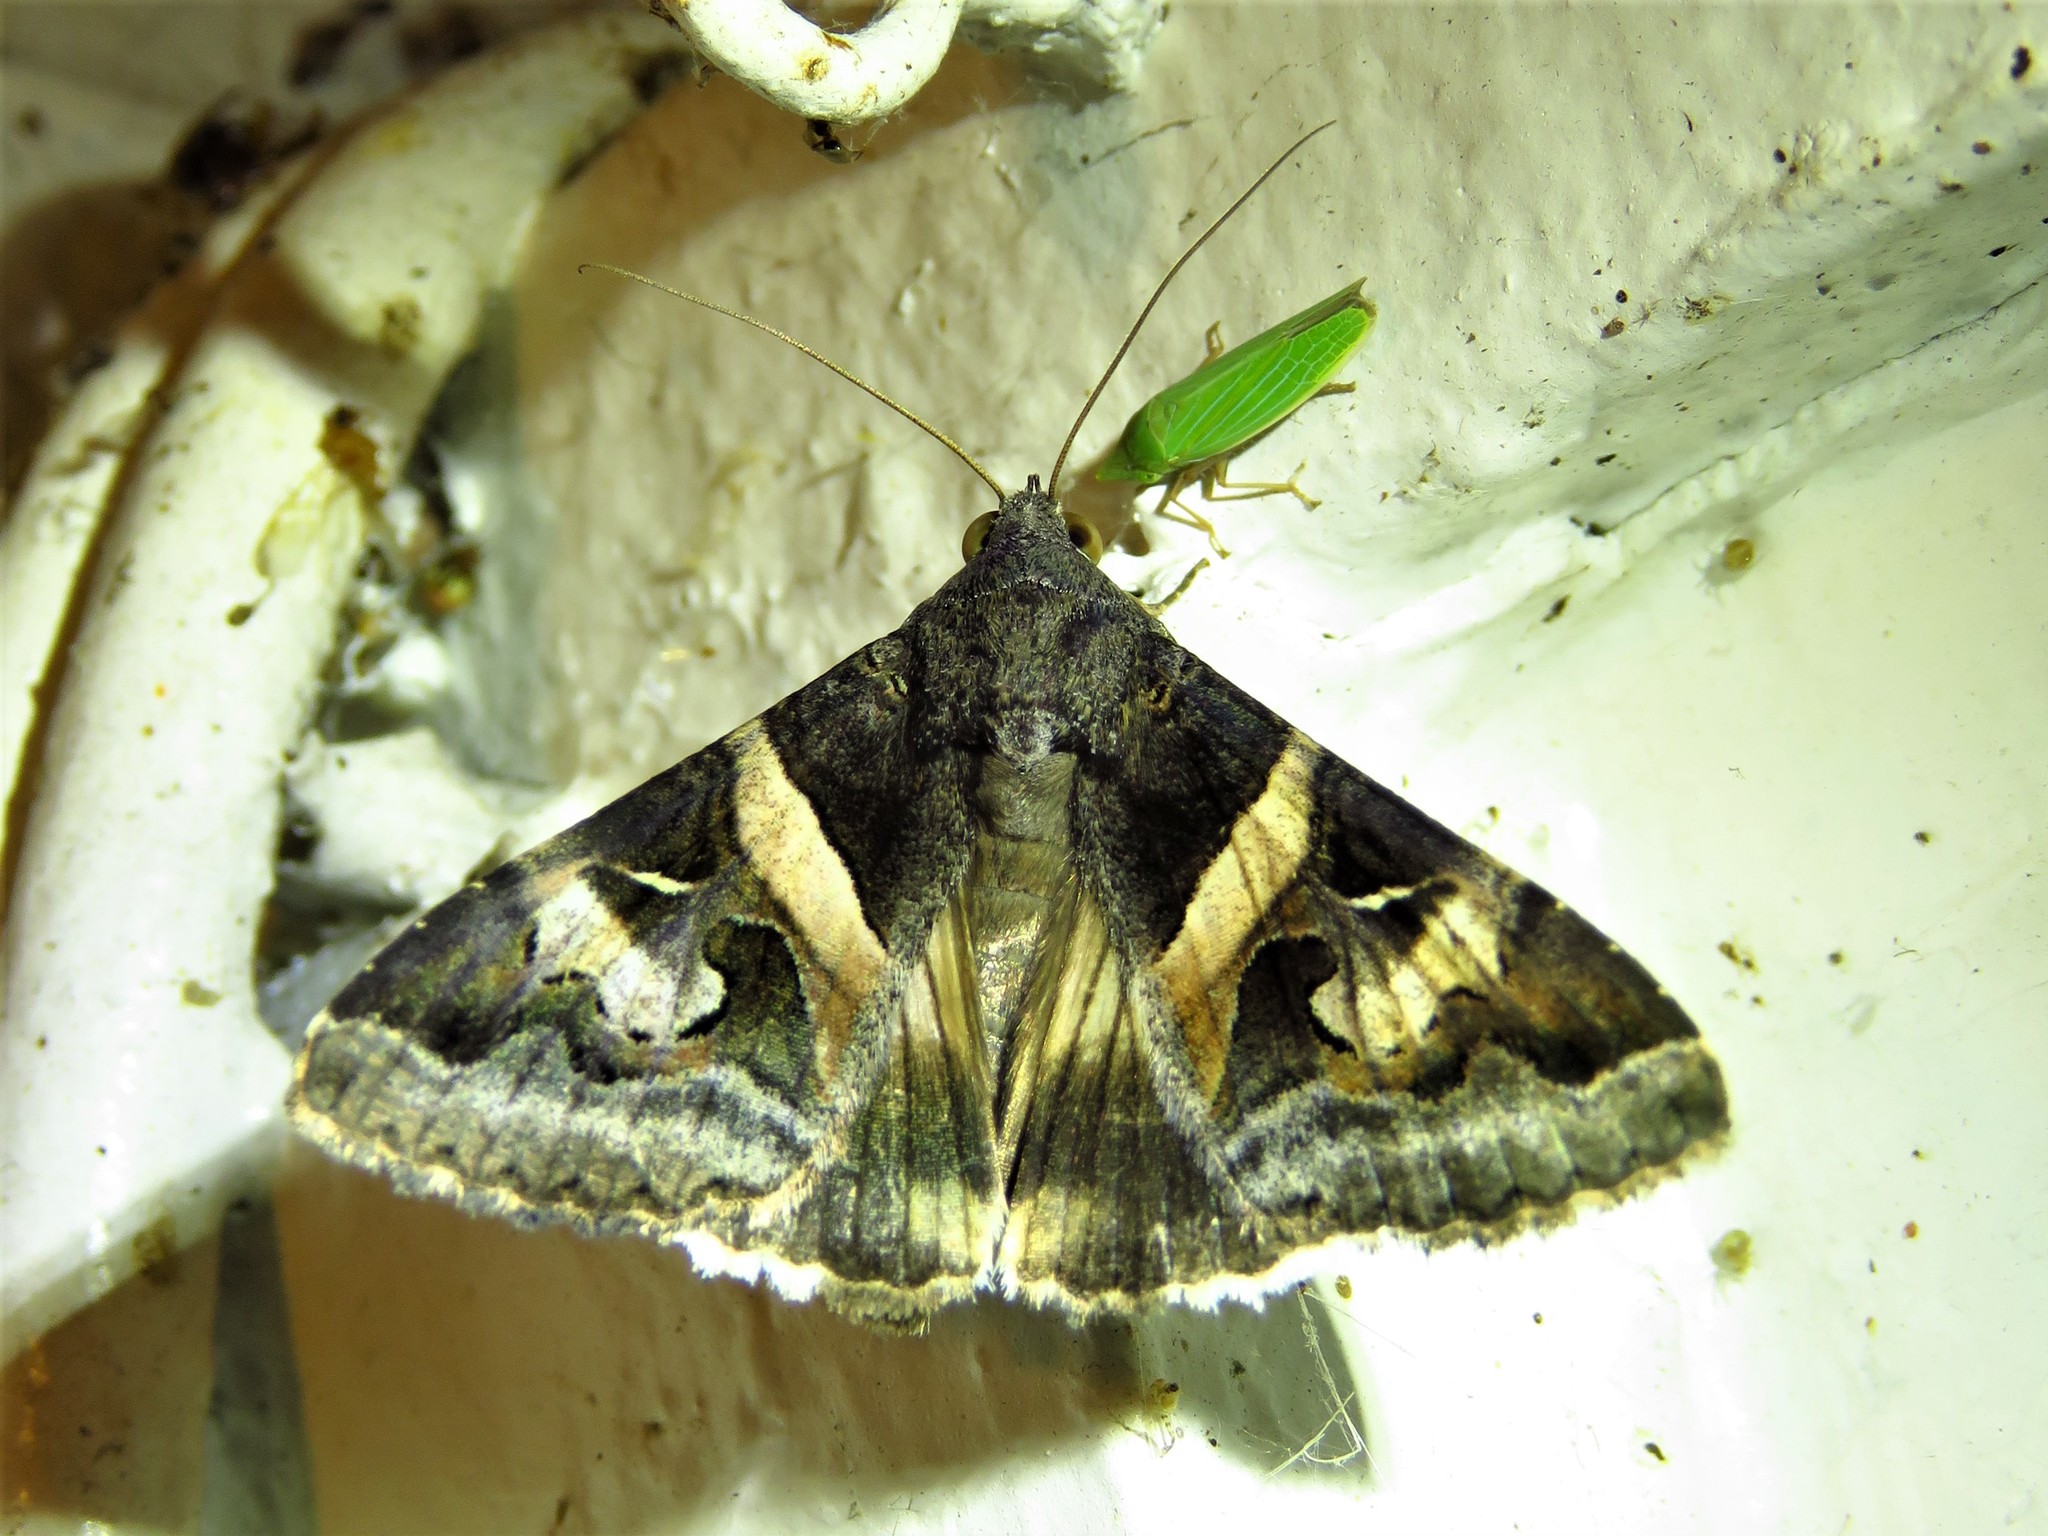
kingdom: Animalia
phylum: Arthropoda
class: Insecta
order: Lepidoptera
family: Erebidae
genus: Melipotis
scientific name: Melipotis indomita
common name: Moth
